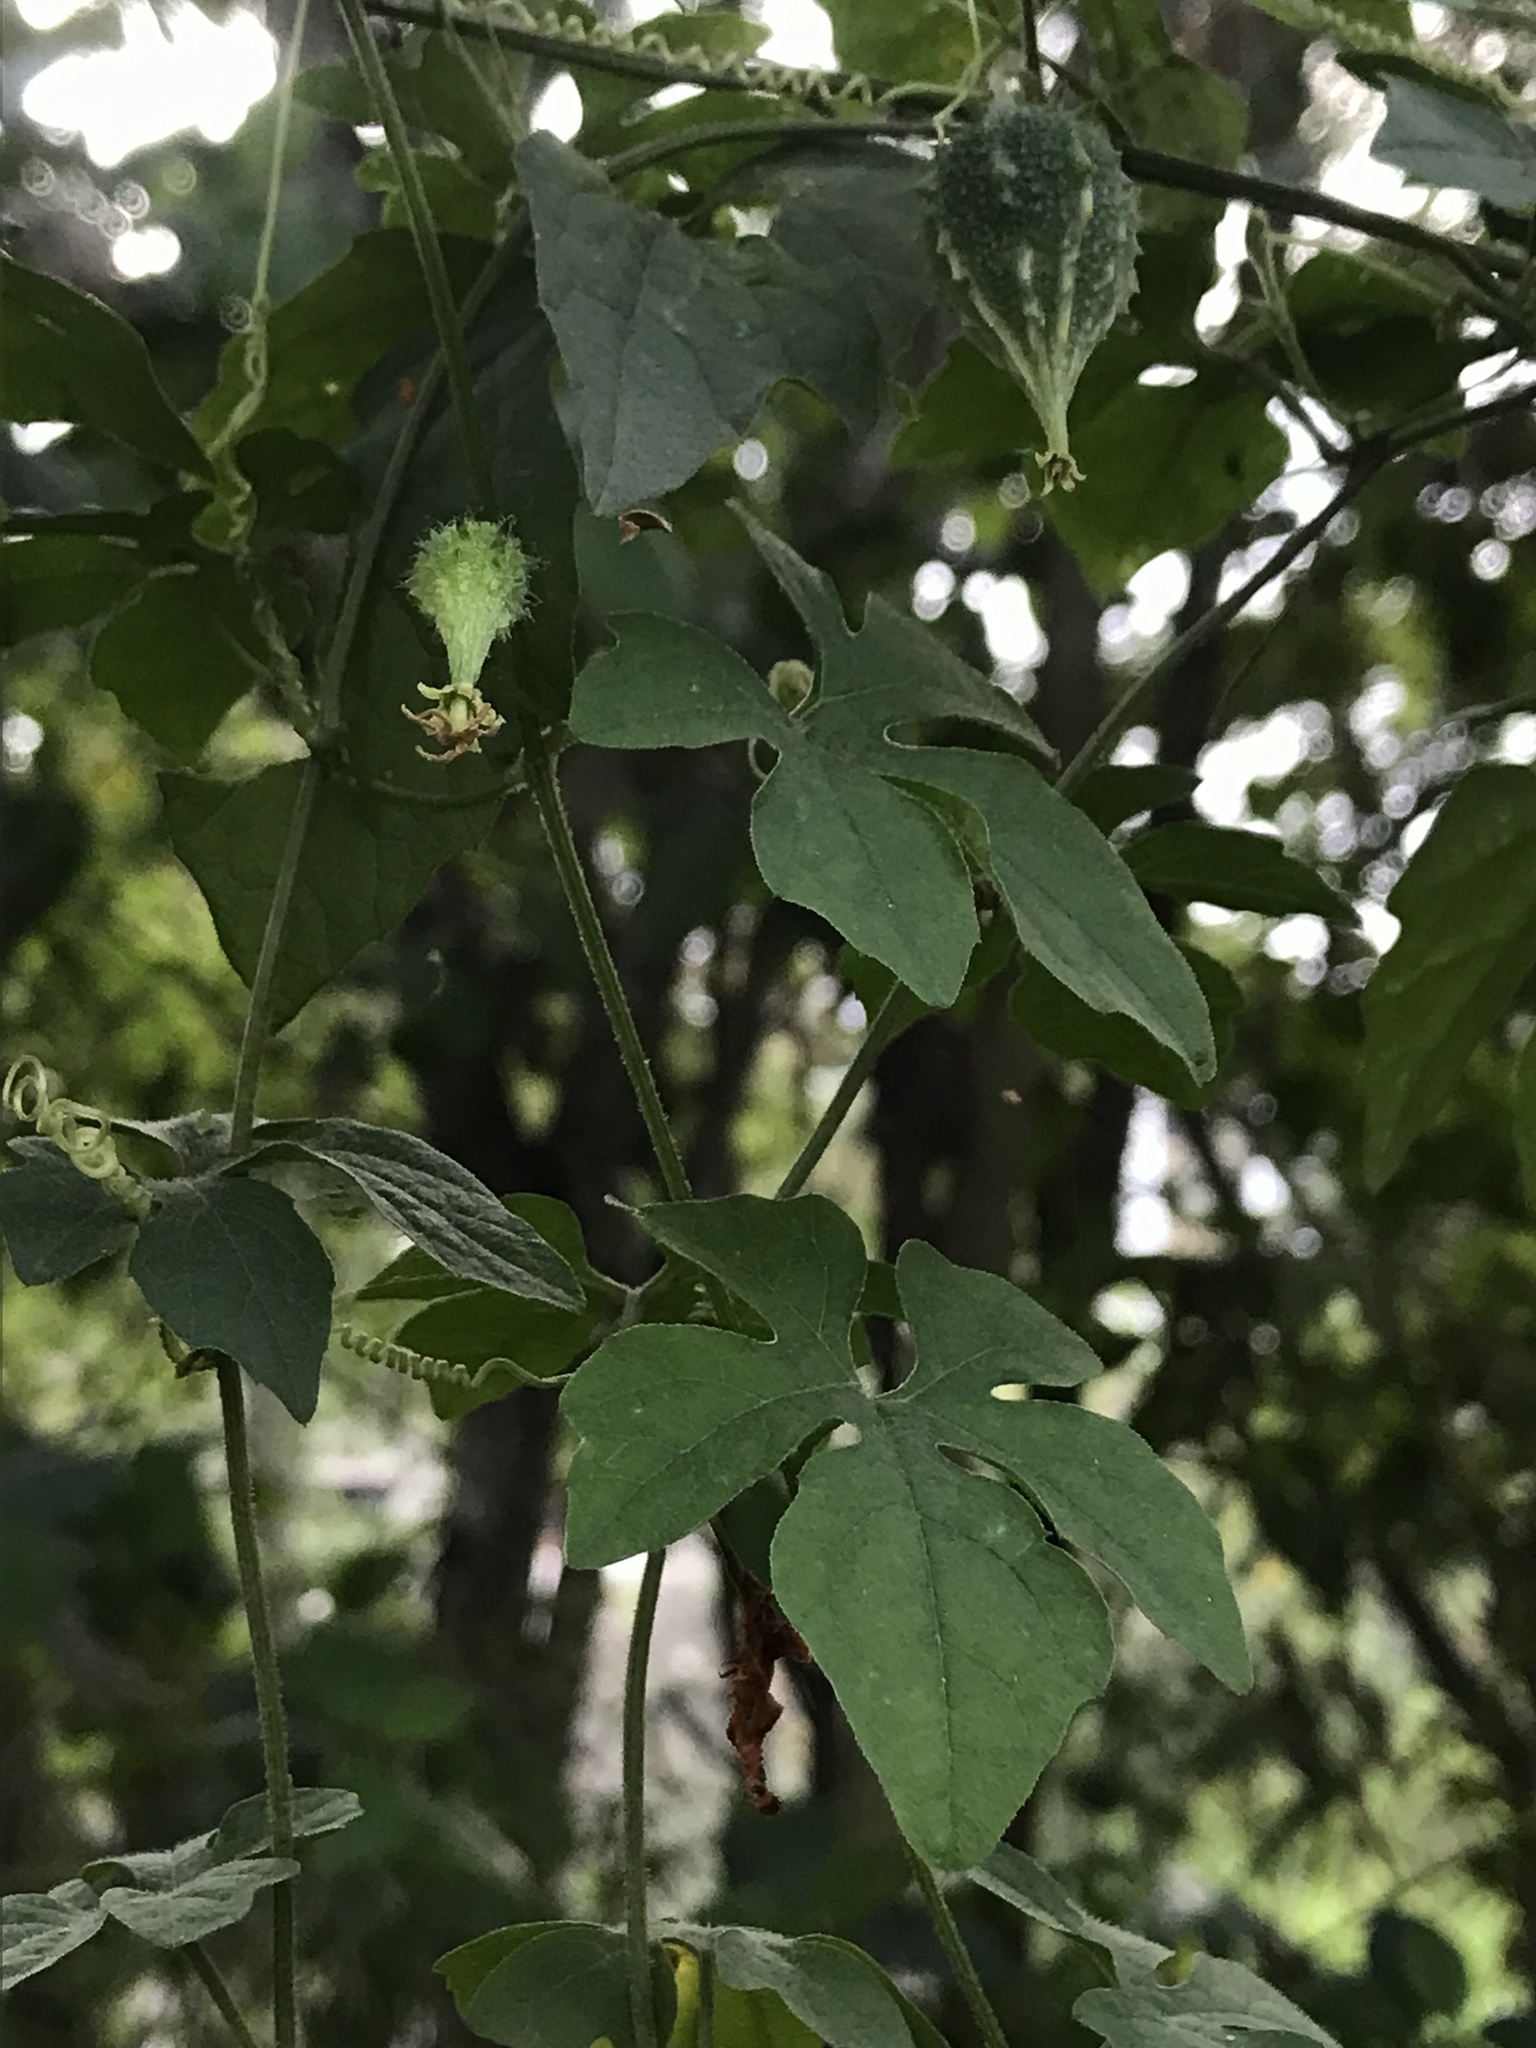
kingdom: Plantae
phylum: Tracheophyta
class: Magnoliopsida
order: Cucurbitales
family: Cucurbitaceae
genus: Momordica
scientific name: Momordica charantia
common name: Balsampear
